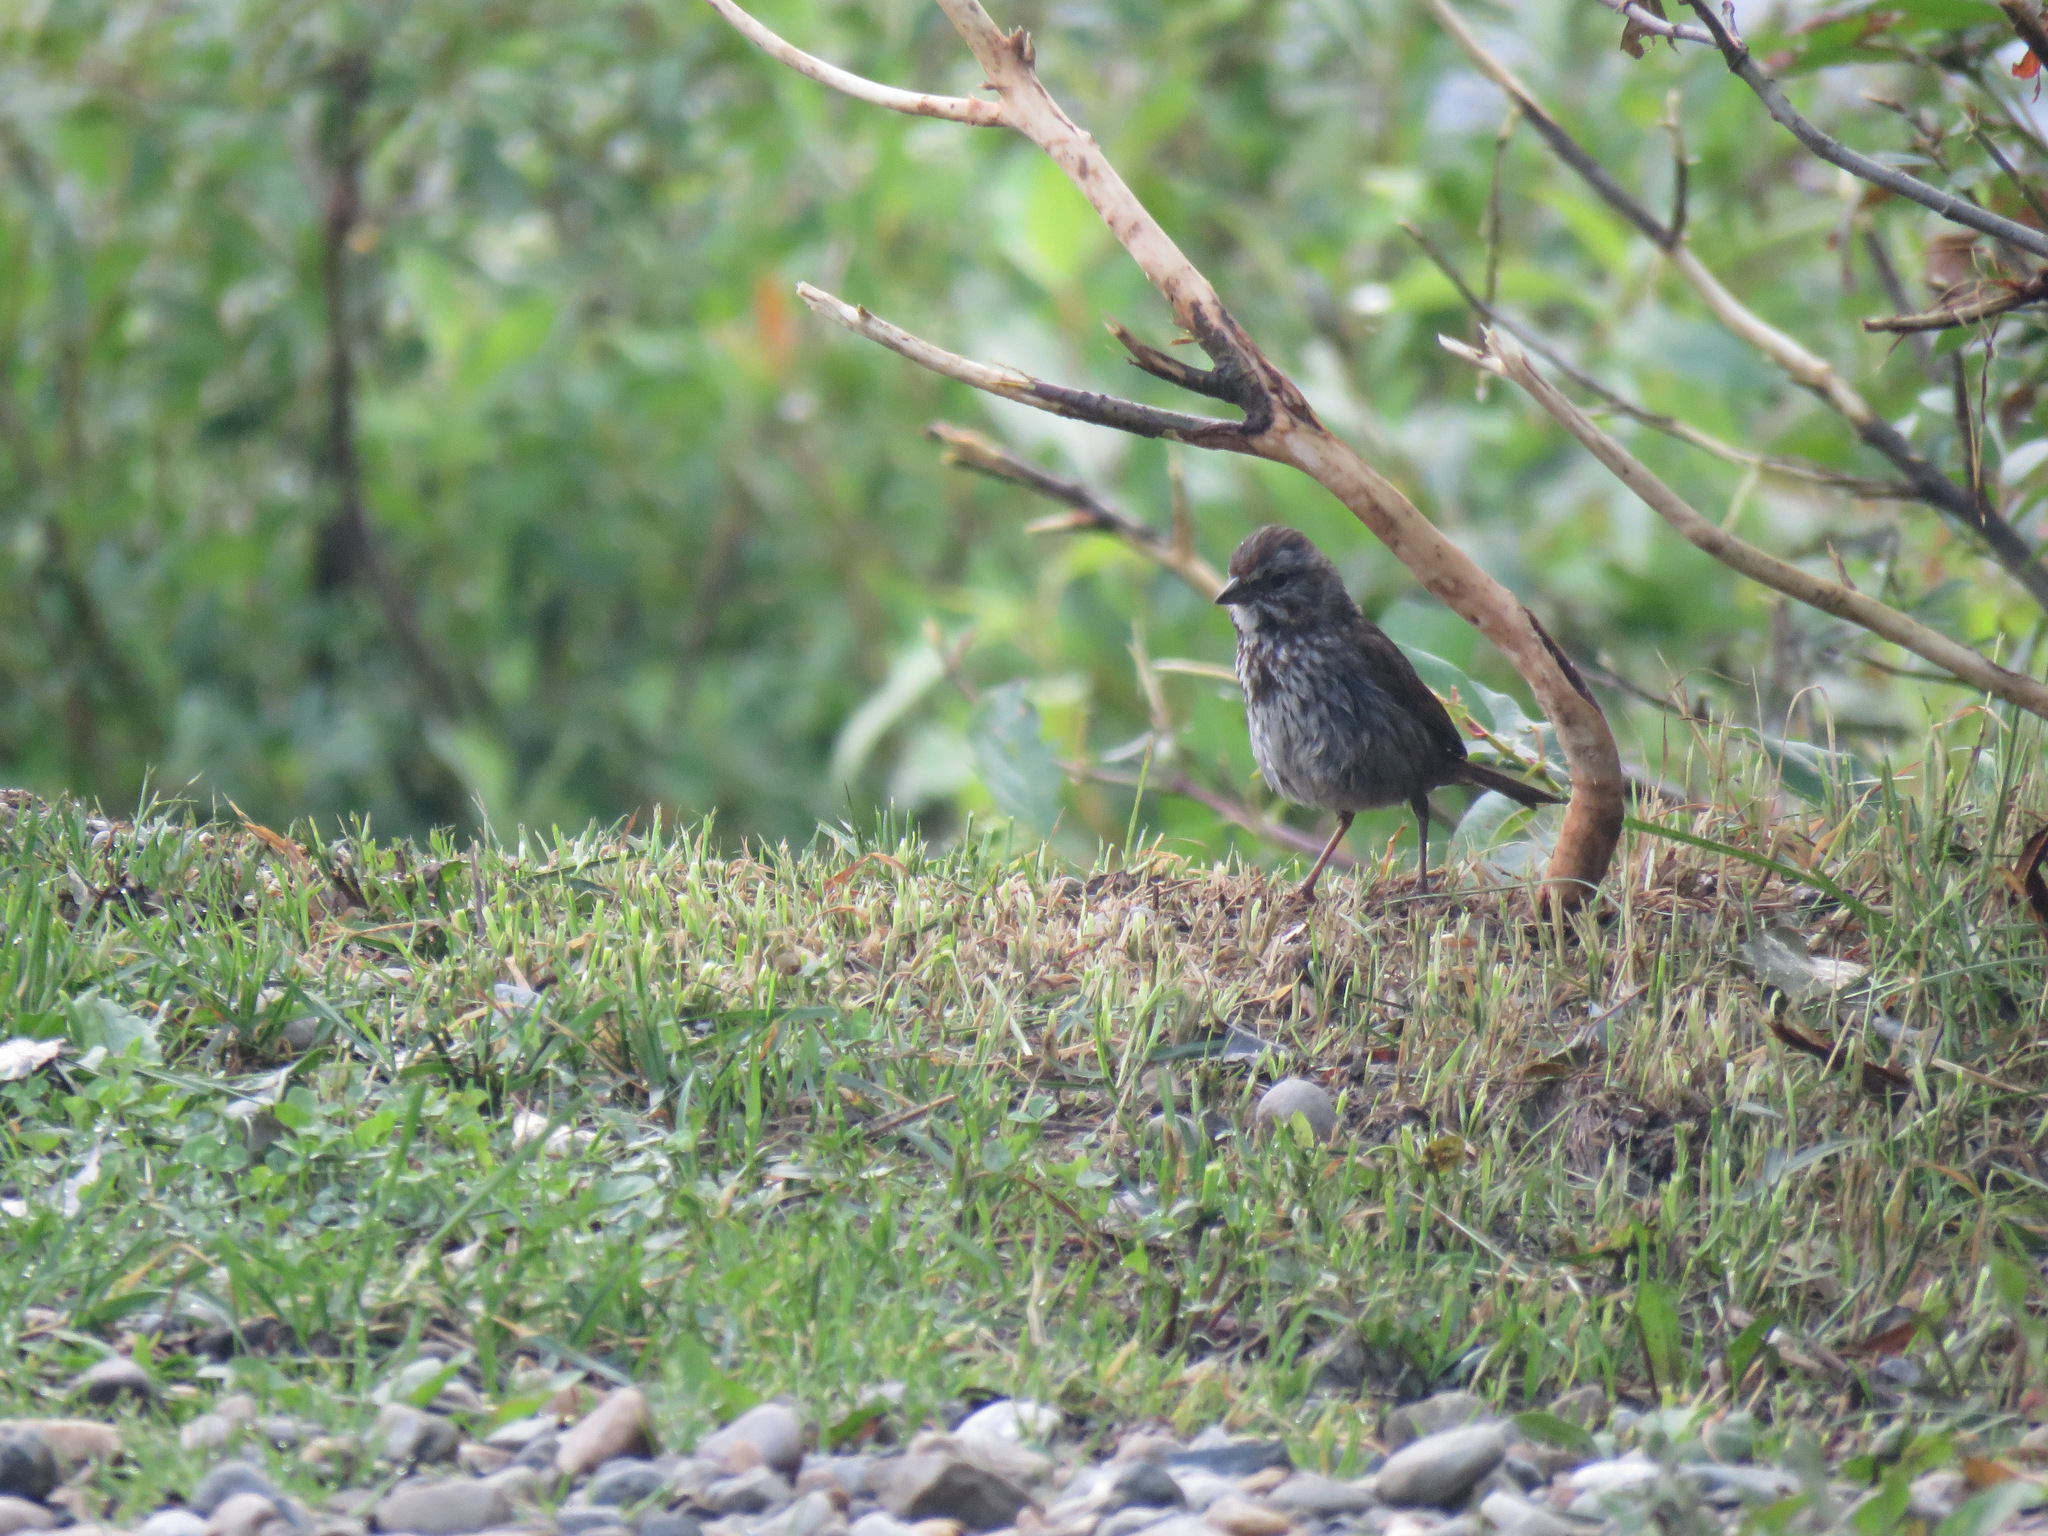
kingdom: Animalia
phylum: Chordata
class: Aves
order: Passeriformes
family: Passerellidae
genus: Melospiza
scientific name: Melospiza melodia
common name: Song sparrow
